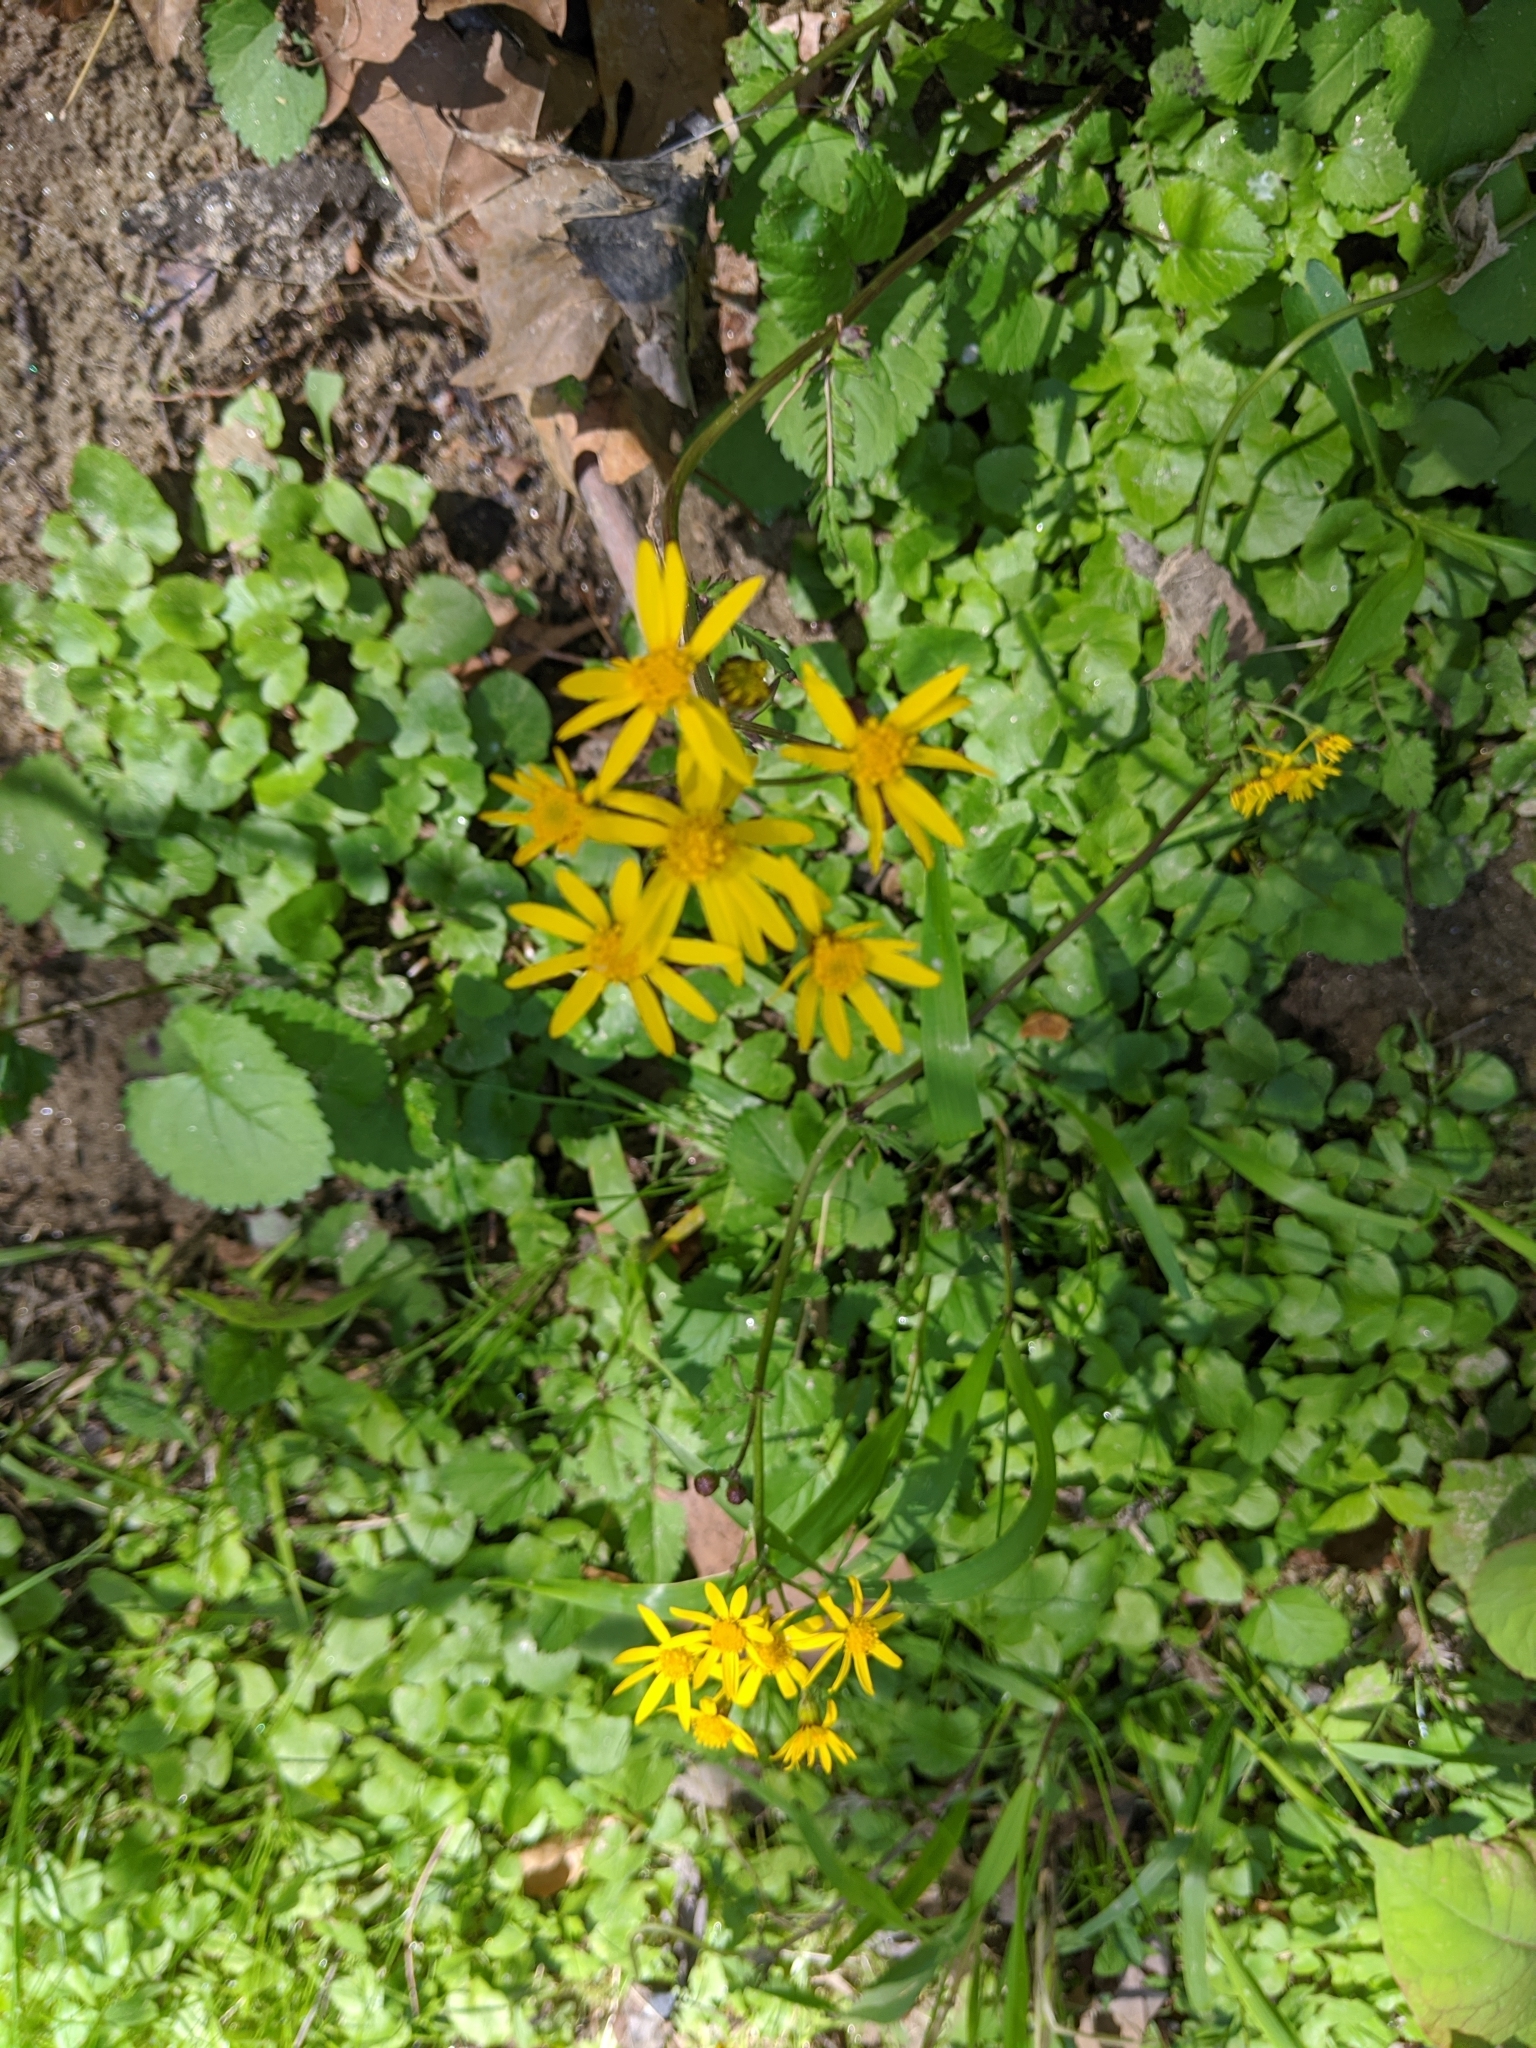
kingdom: Plantae
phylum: Tracheophyta
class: Magnoliopsida
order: Asterales
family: Asteraceae
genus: Packera
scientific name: Packera aurea
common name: Golden groundsel
